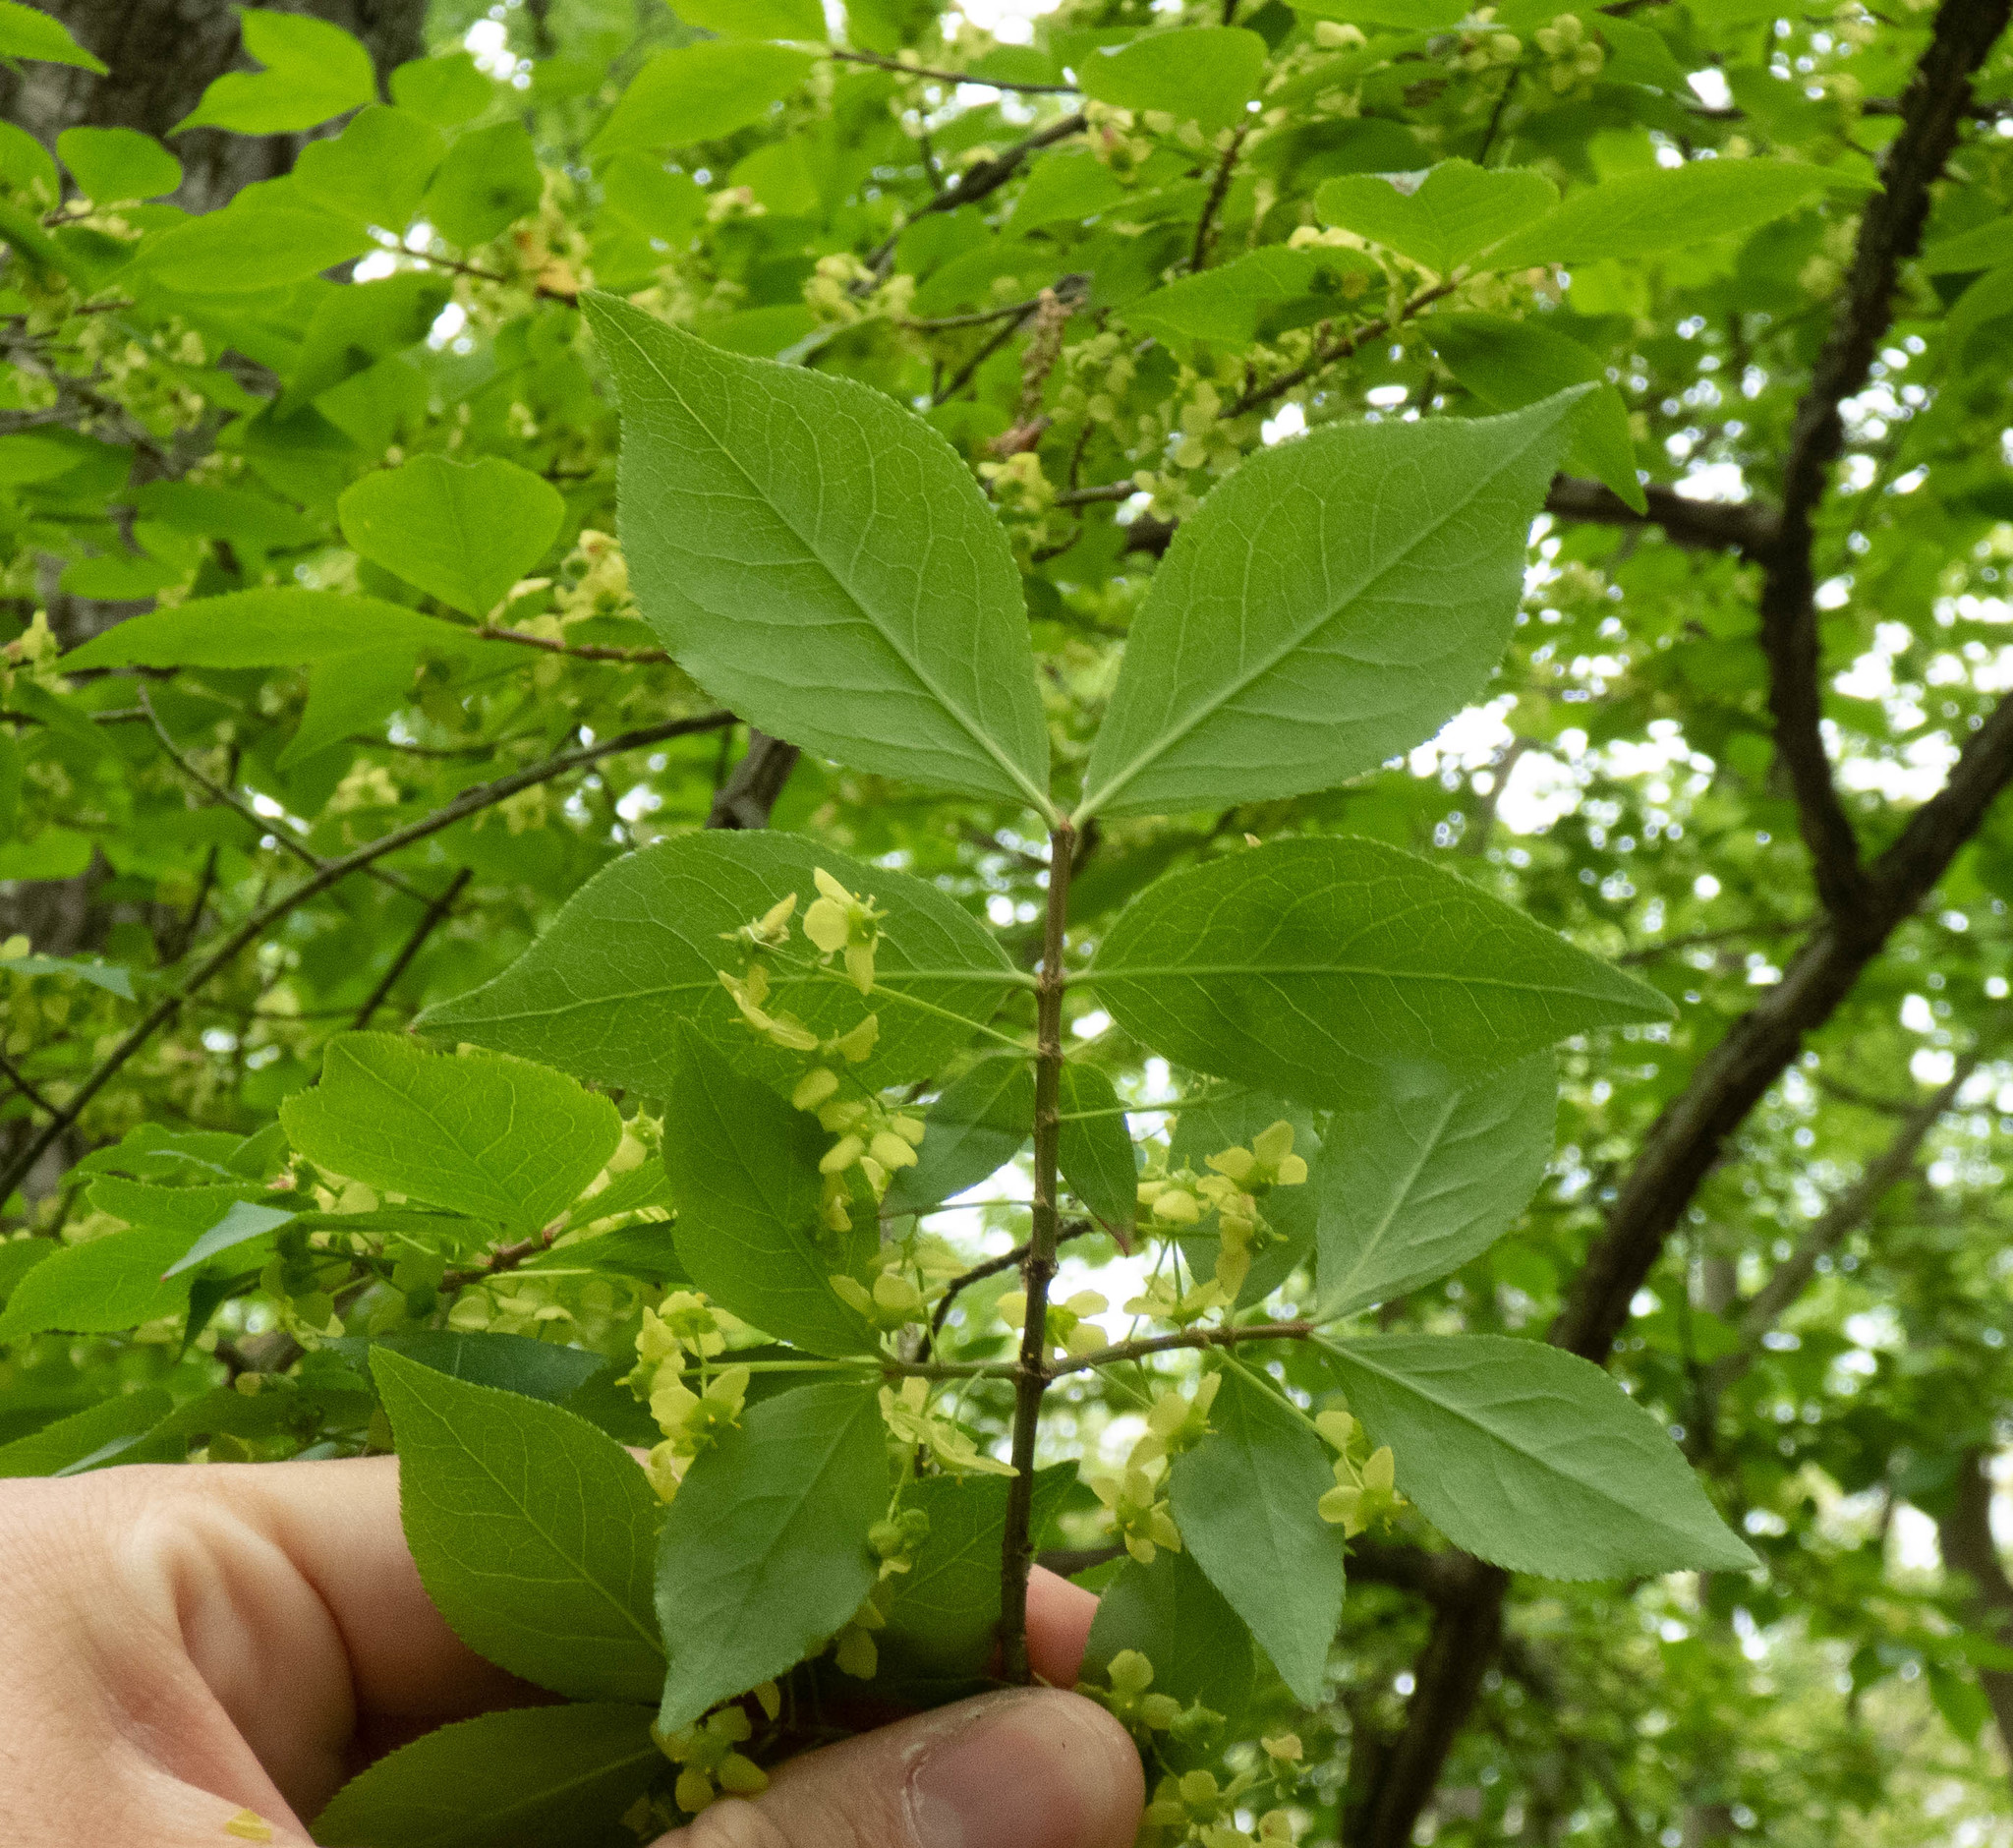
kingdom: Plantae
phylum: Tracheophyta
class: Magnoliopsida
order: Celastrales
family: Celastraceae
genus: Euonymus
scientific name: Euonymus alatus
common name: Winged euonymus
